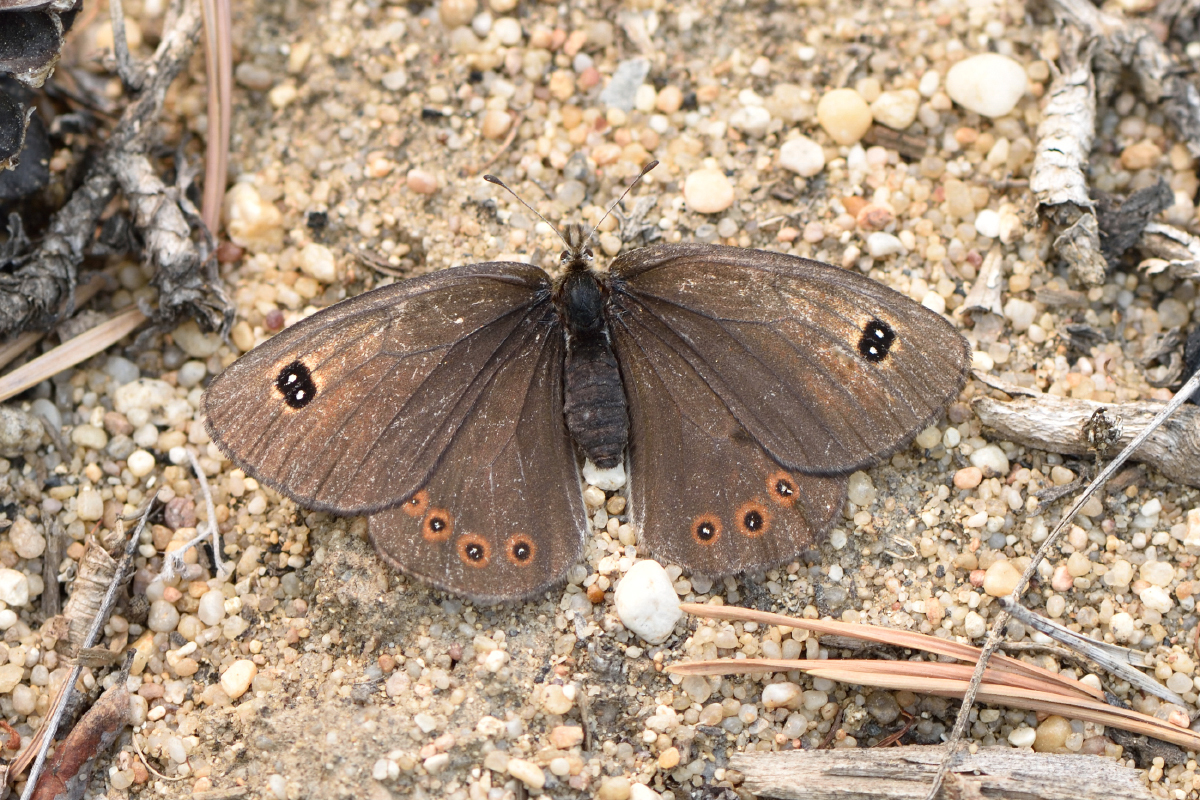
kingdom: Animalia
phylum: Arthropoda
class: Insecta
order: Lepidoptera
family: Nymphalidae
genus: Erebia
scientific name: Erebia Boeberia parmenio
